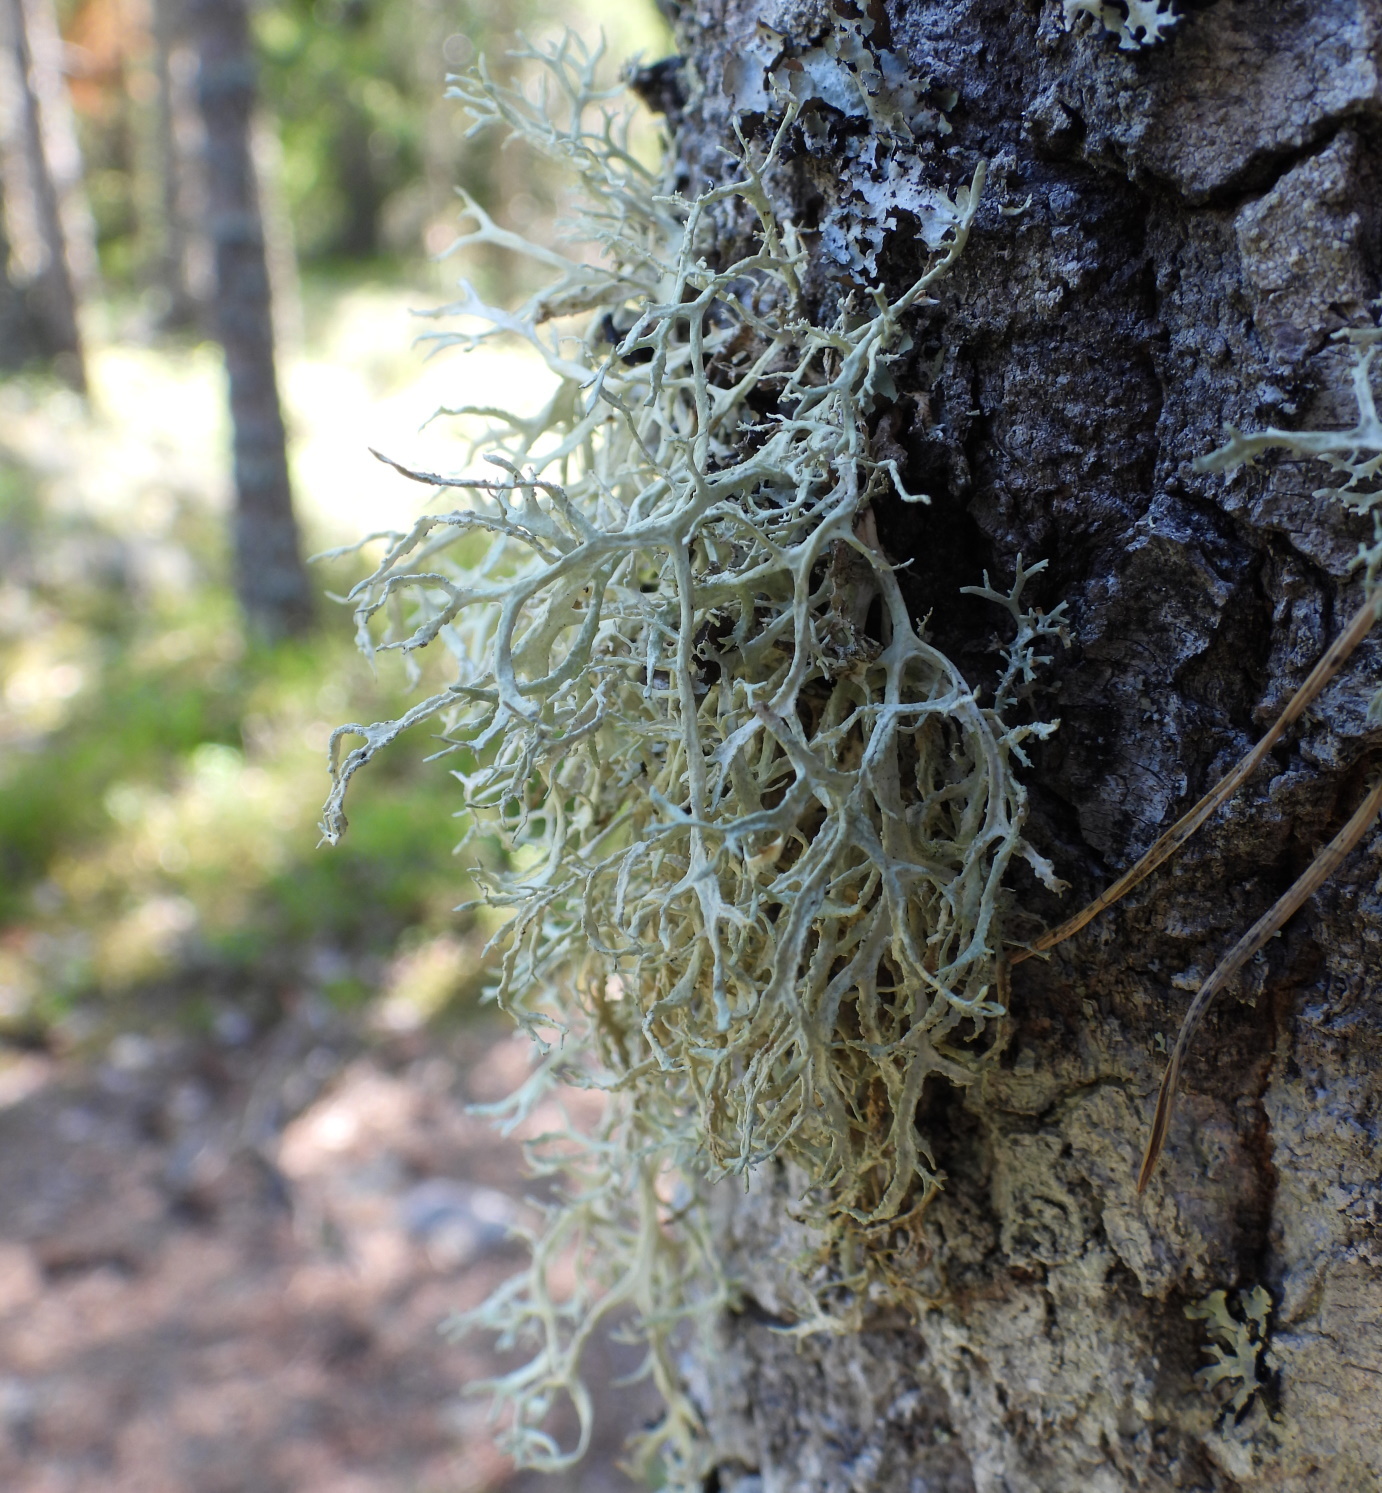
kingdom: Fungi
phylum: Ascomycota
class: Lecanoromycetes
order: Lecanorales
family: Parmeliaceae
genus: Evernia
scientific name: Evernia prunastri
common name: Oak moss
